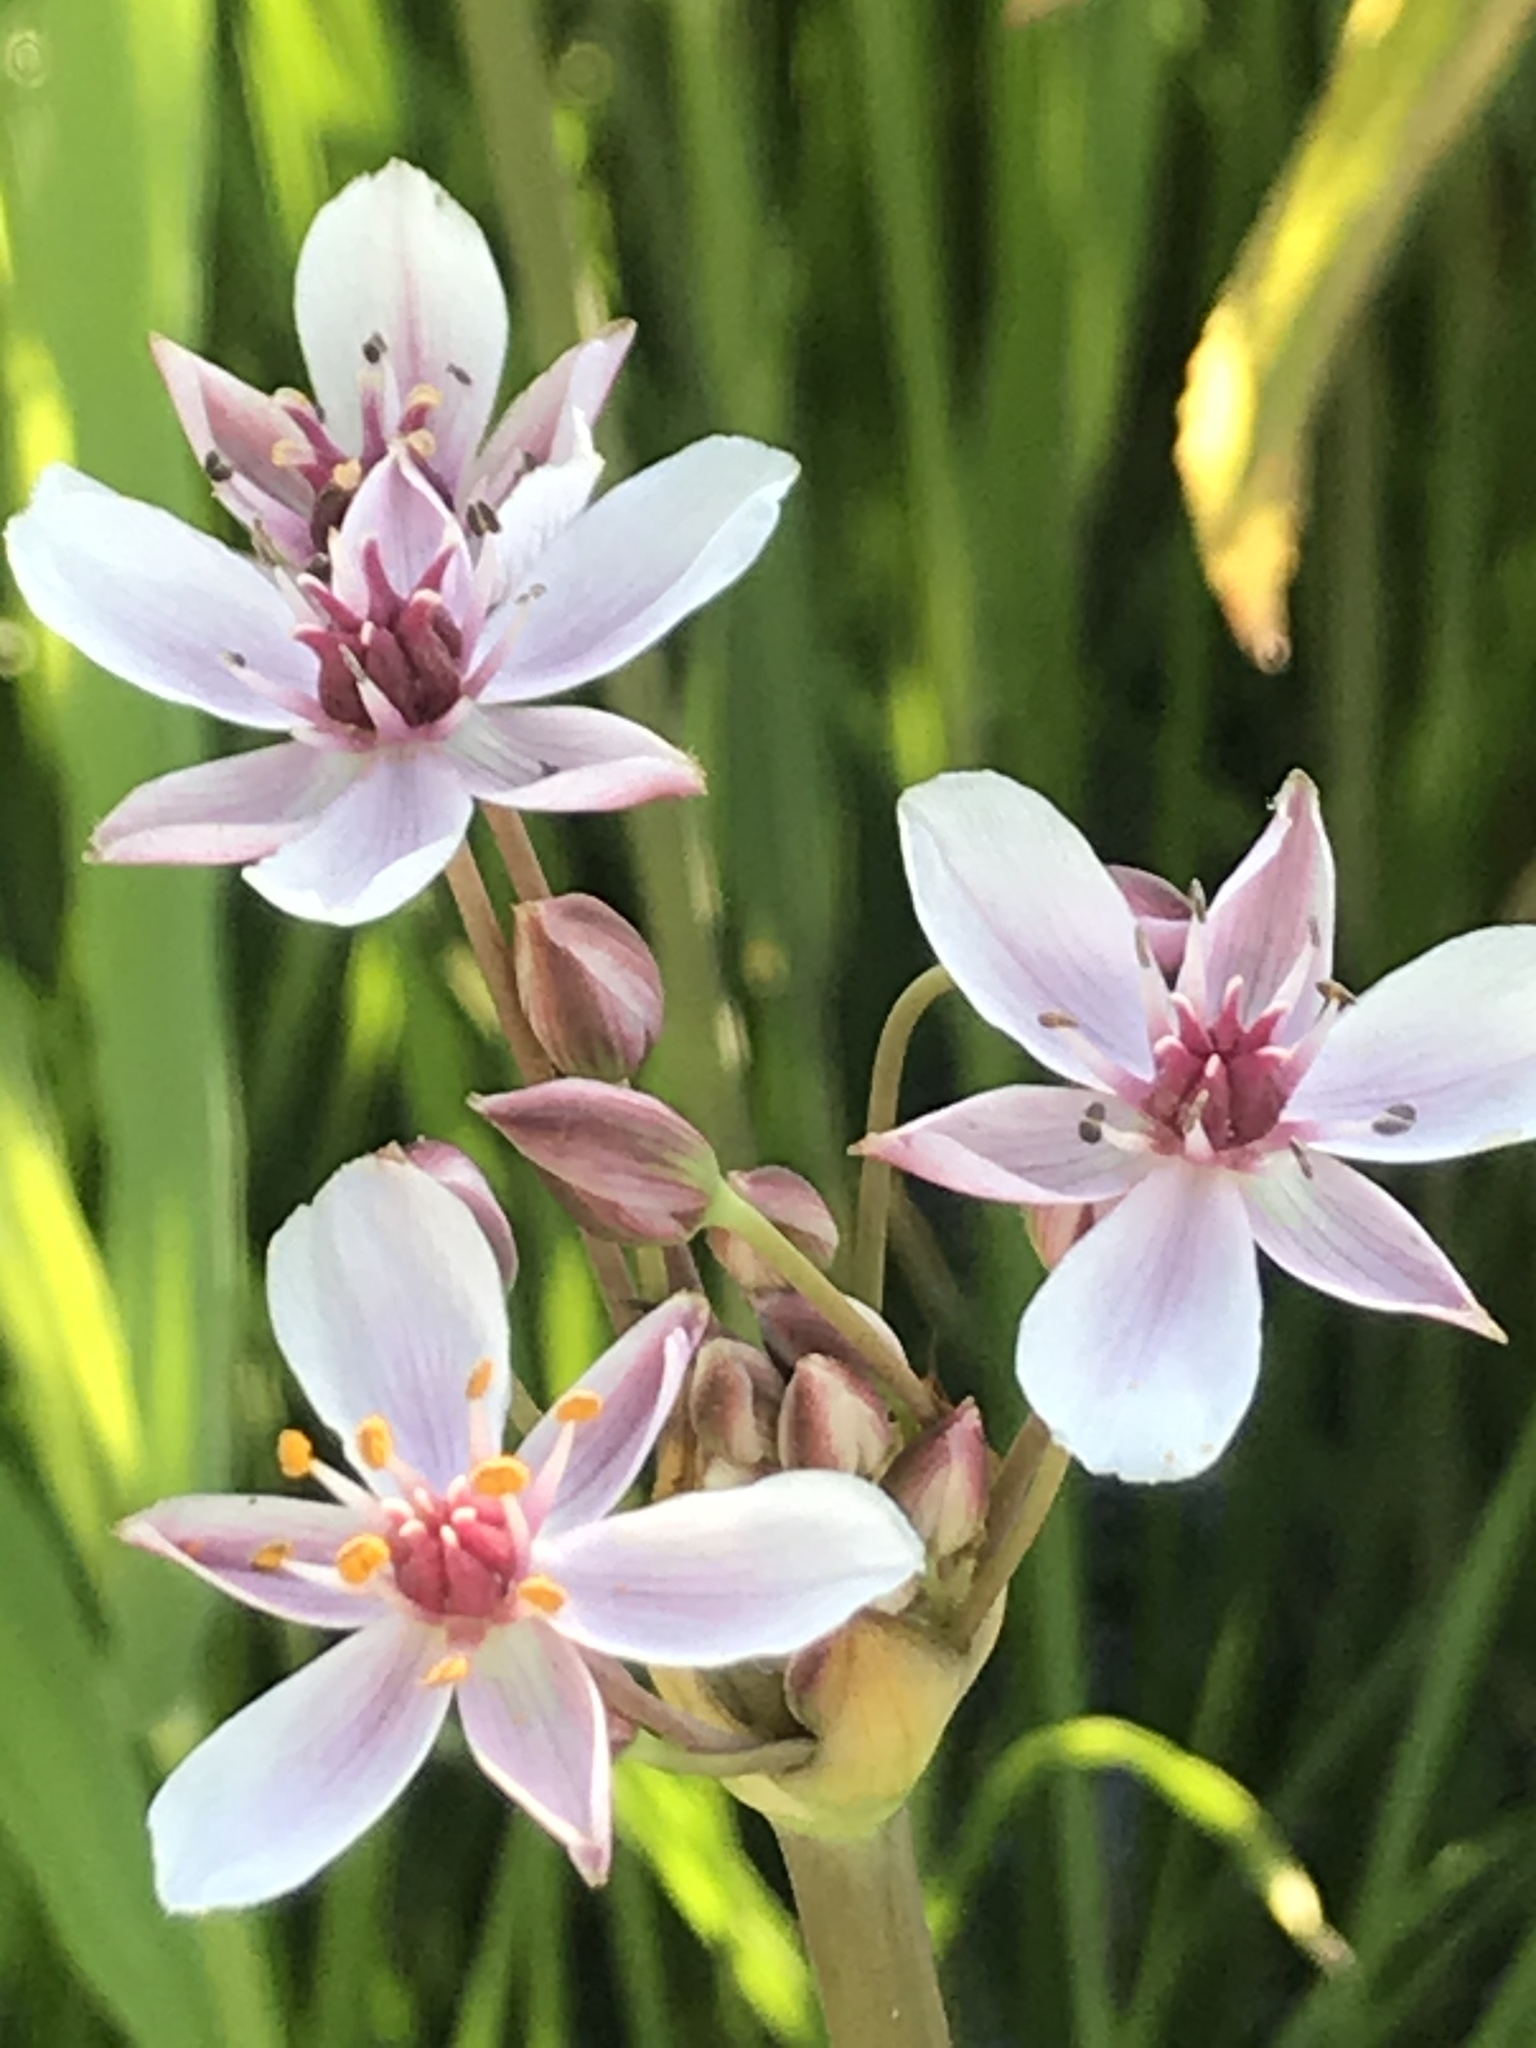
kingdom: Plantae
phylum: Tracheophyta
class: Liliopsida
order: Alismatales
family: Butomaceae
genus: Butomus
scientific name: Butomus umbellatus
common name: Flowering-rush
